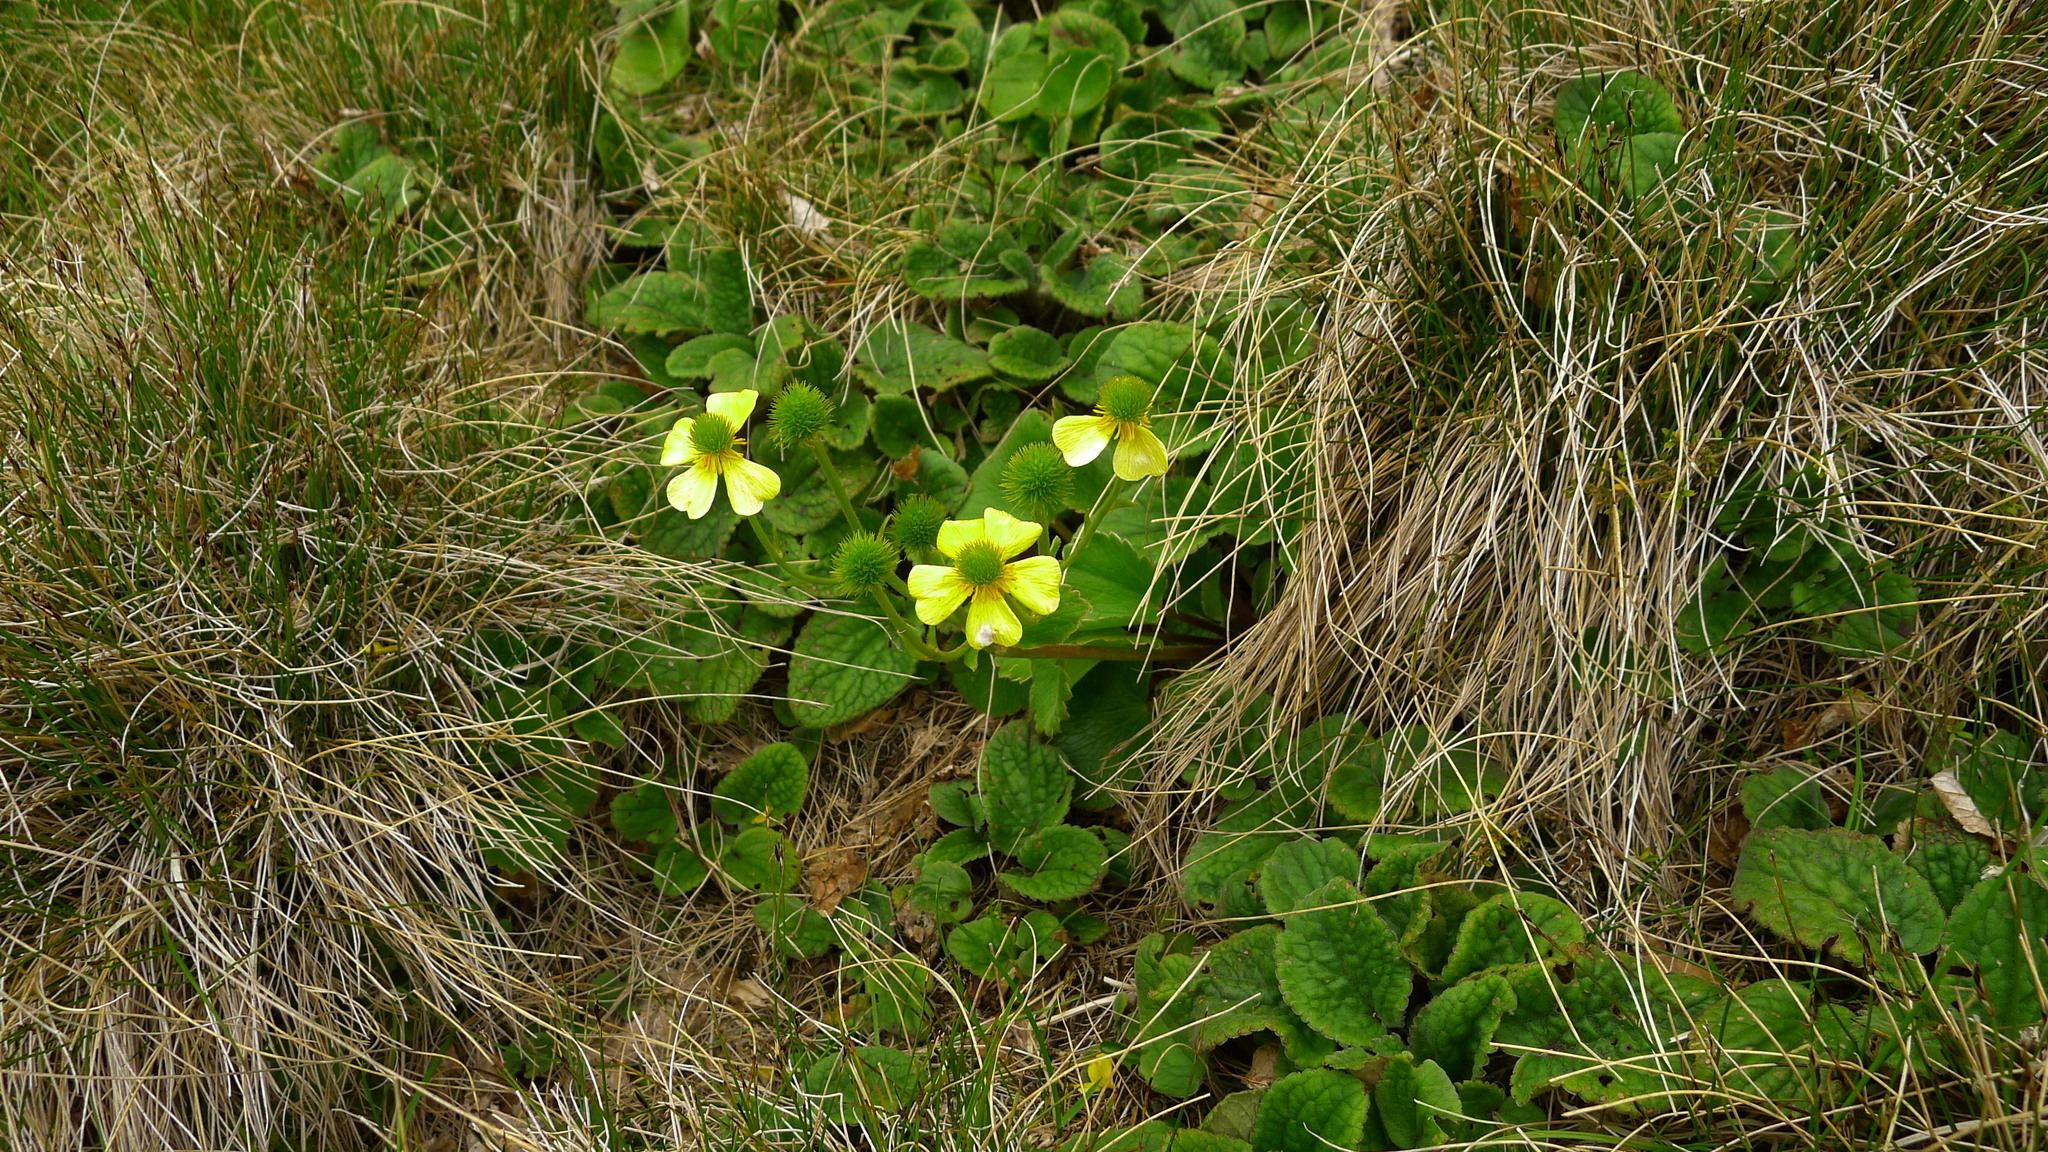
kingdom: Plantae
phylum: Tracheophyta
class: Magnoliopsida
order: Ranunculales
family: Ranunculaceae
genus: Ranunculus
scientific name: Ranunculus insignis
